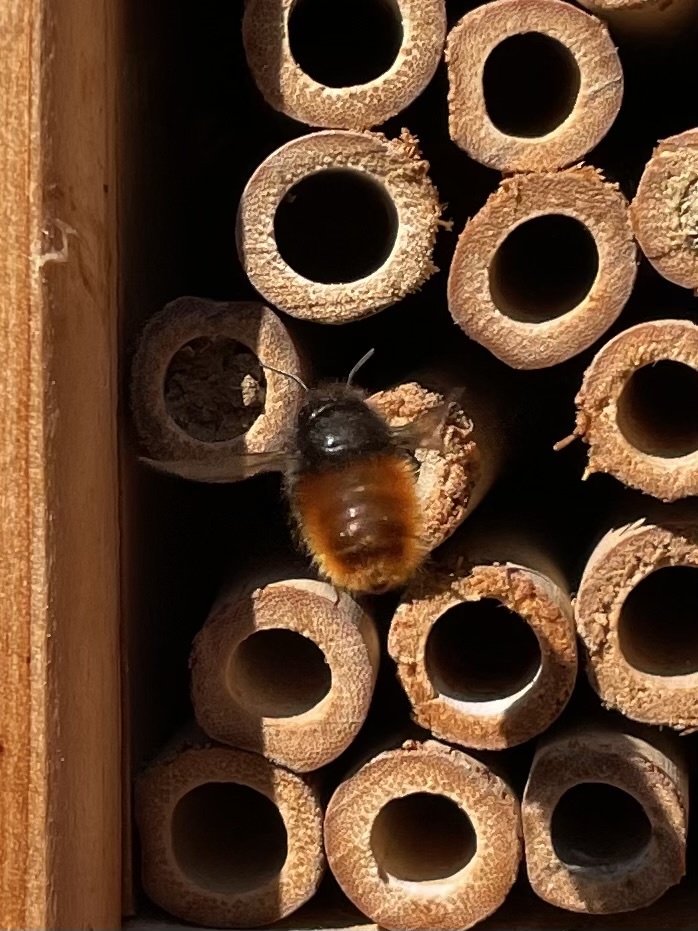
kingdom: Animalia
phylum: Arthropoda
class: Insecta
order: Hymenoptera
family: Megachilidae
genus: Osmia
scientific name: Osmia cornuta
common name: Mason bee
